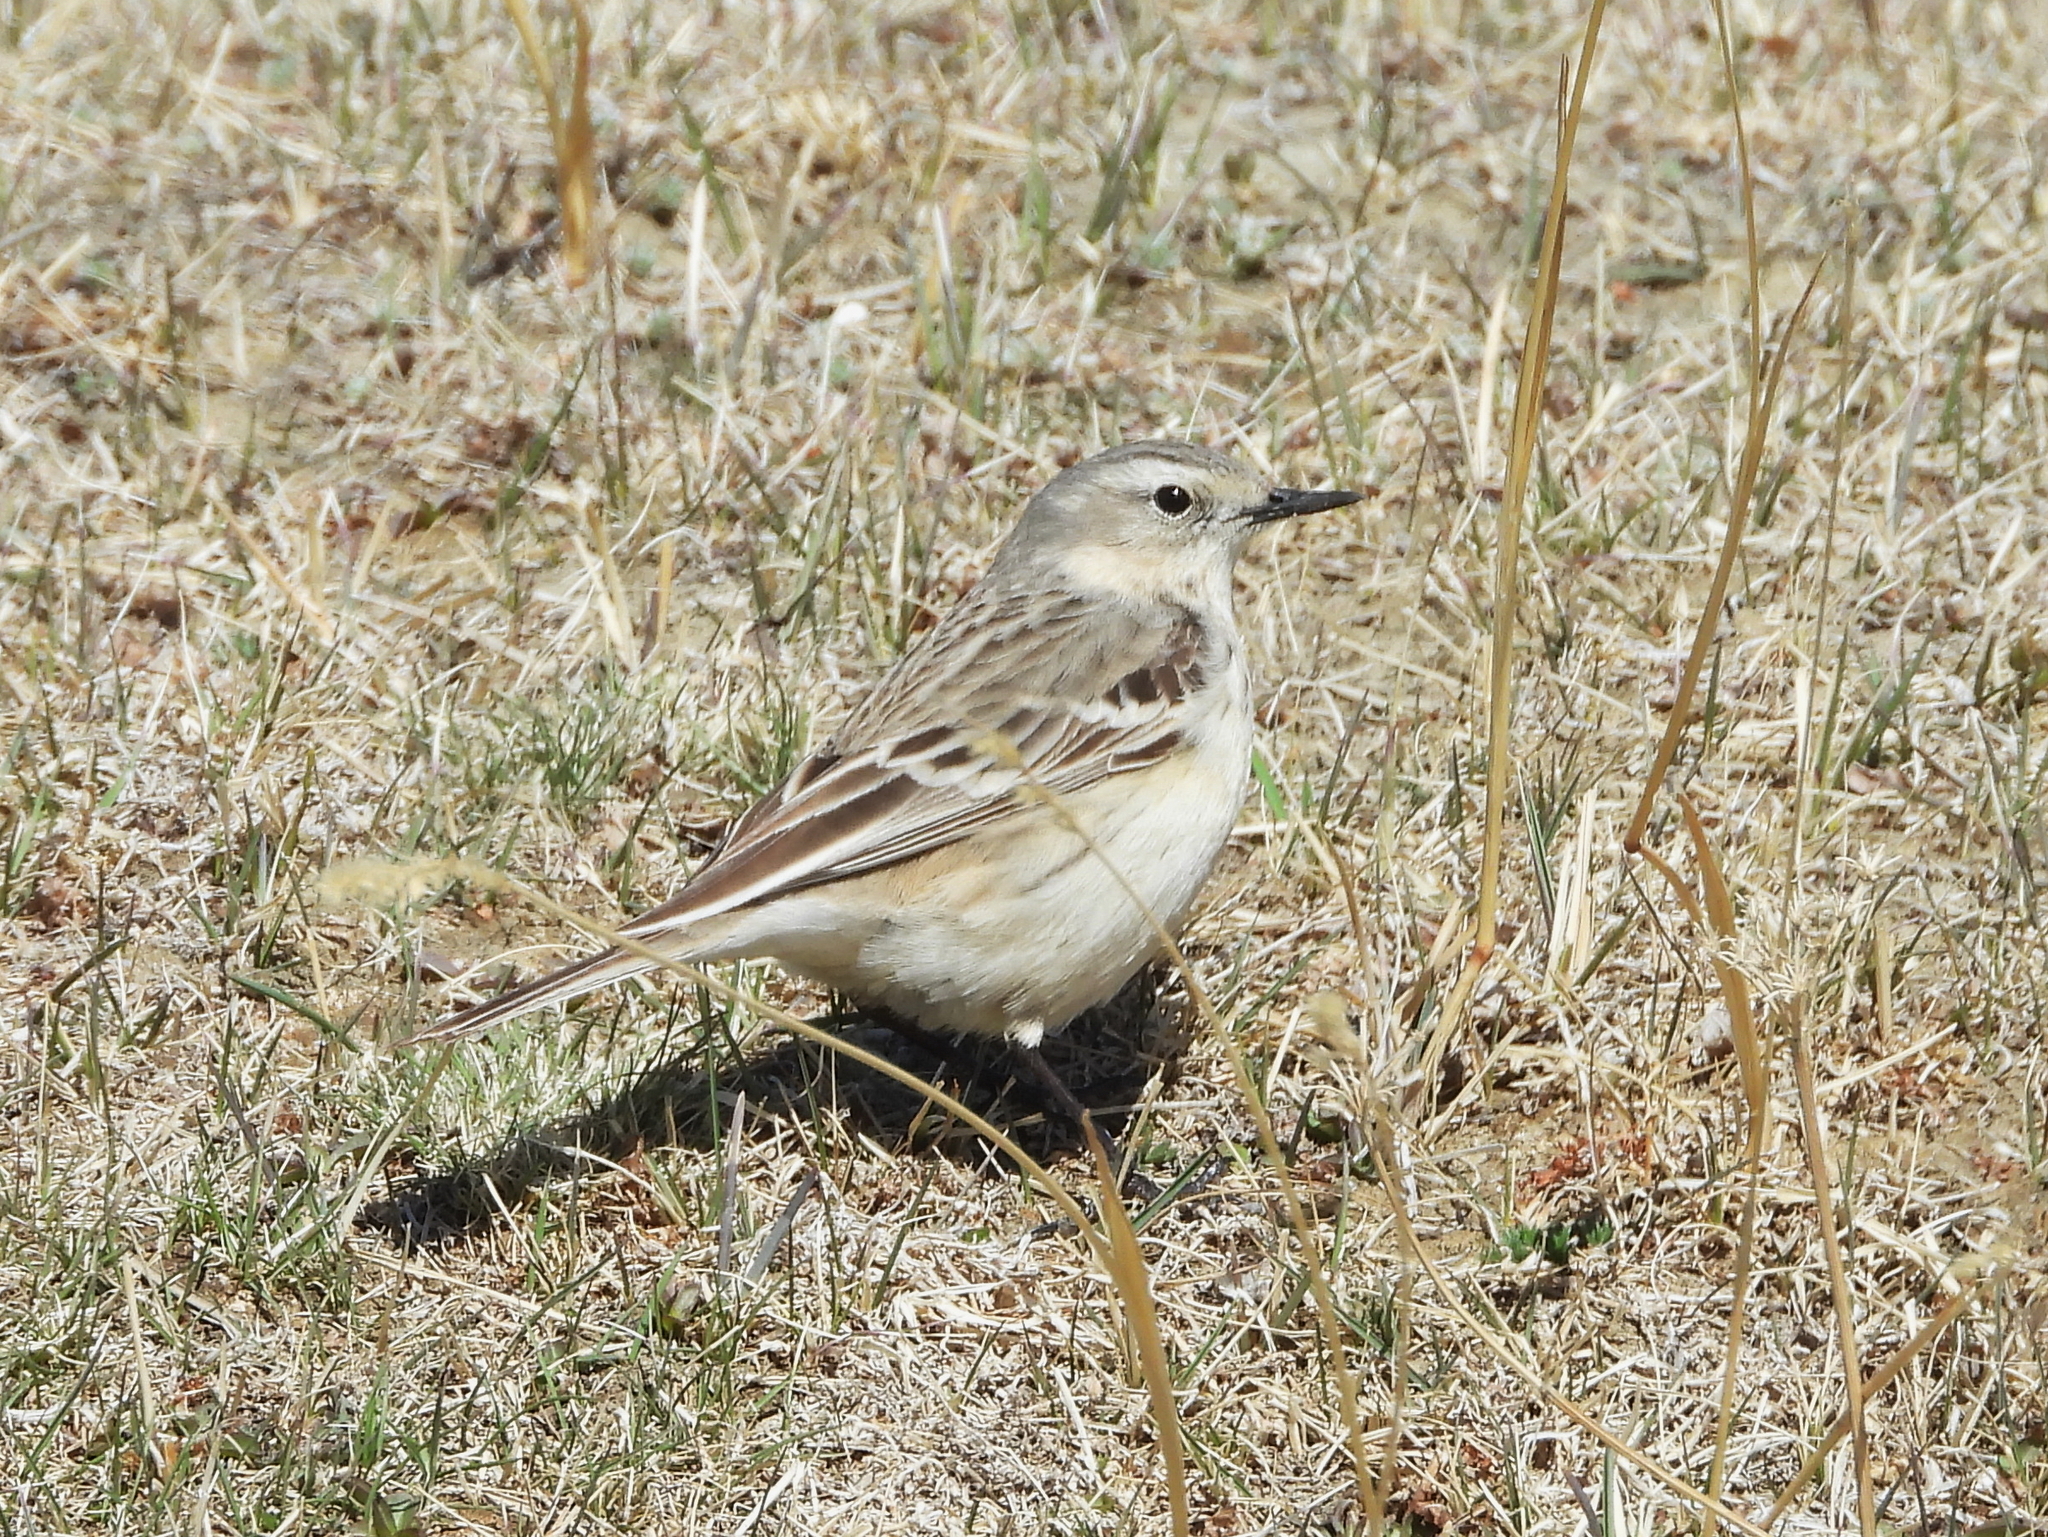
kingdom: Animalia
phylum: Chordata
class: Aves
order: Passeriformes
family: Motacillidae
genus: Anthus
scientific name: Anthus spinoletta
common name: Water pipit
